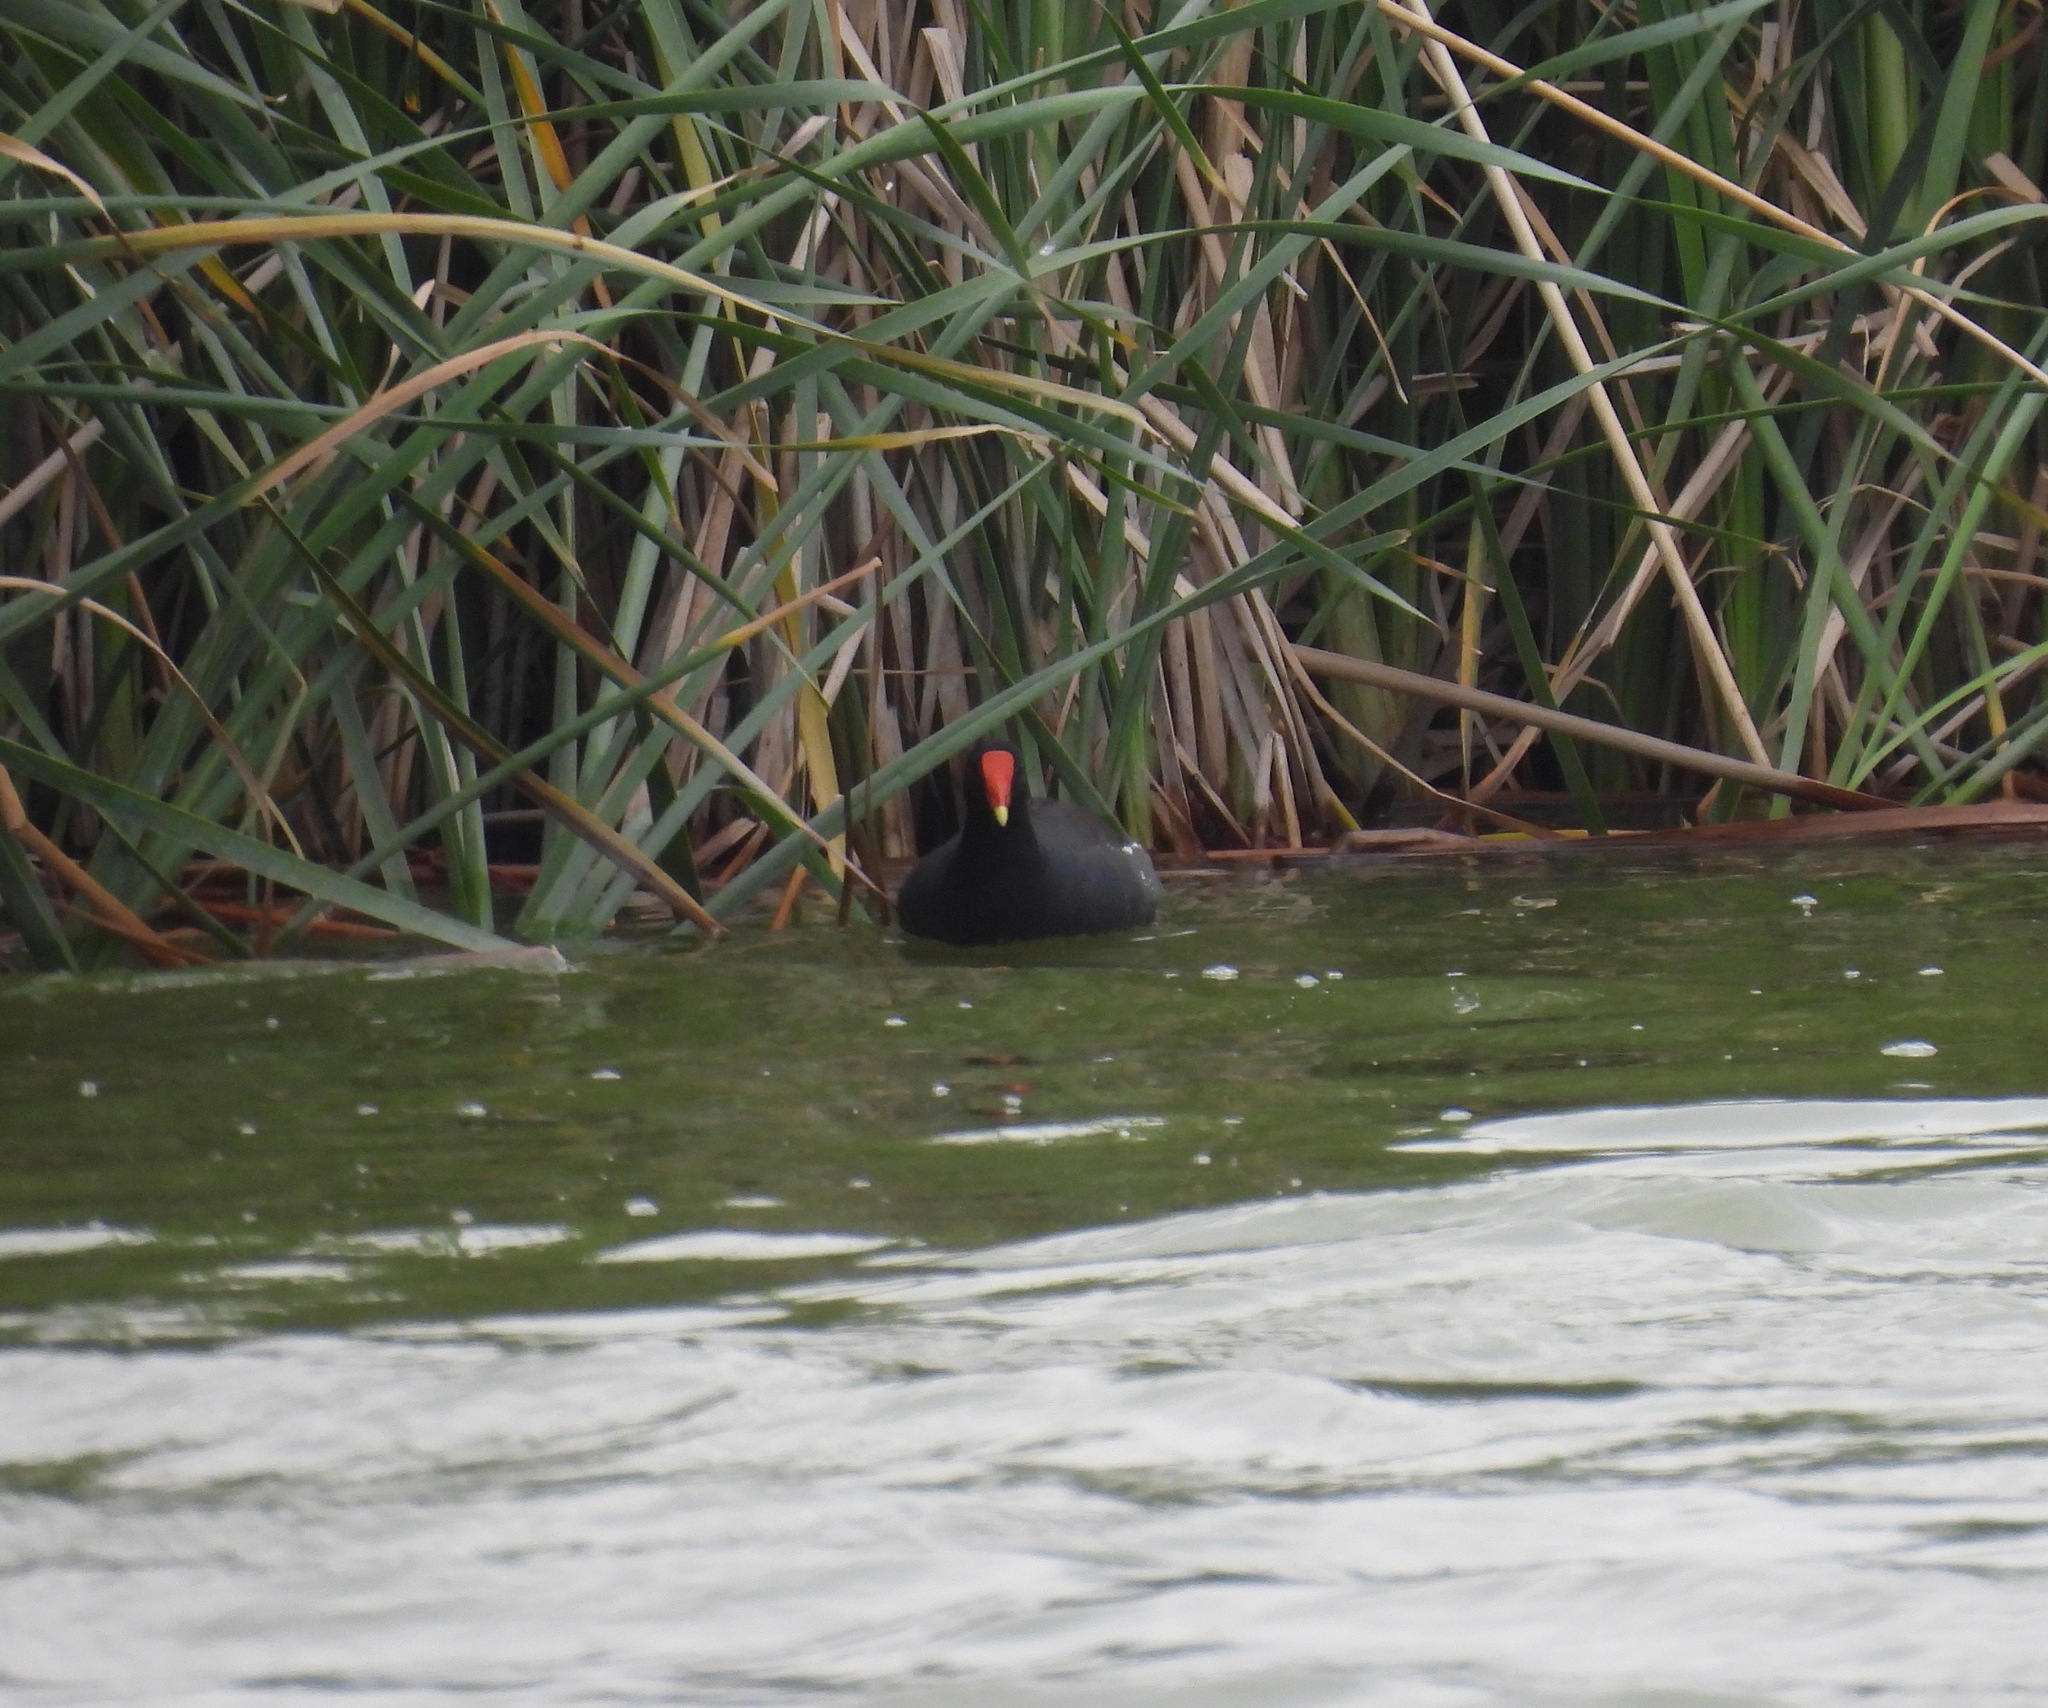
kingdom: Animalia
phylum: Chordata
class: Aves
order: Gruiformes
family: Rallidae
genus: Gallinula
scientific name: Gallinula chloropus
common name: Common moorhen
